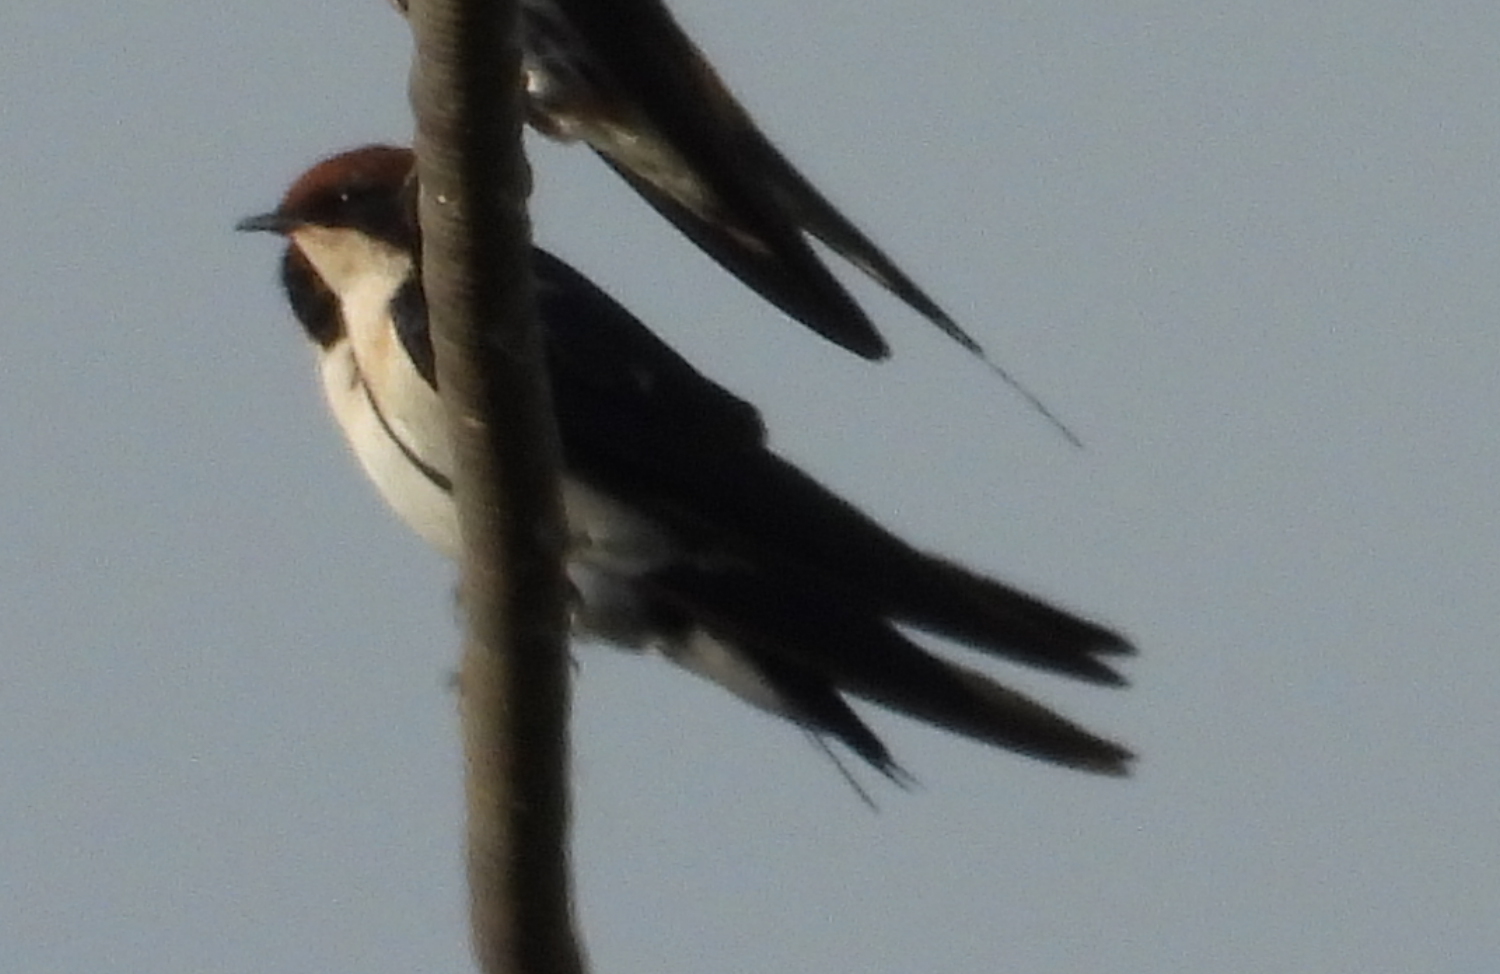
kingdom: Animalia
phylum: Chordata
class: Aves
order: Passeriformes
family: Hirundinidae
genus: Hirundo
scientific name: Hirundo smithii
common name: Wire-tailed swallow
